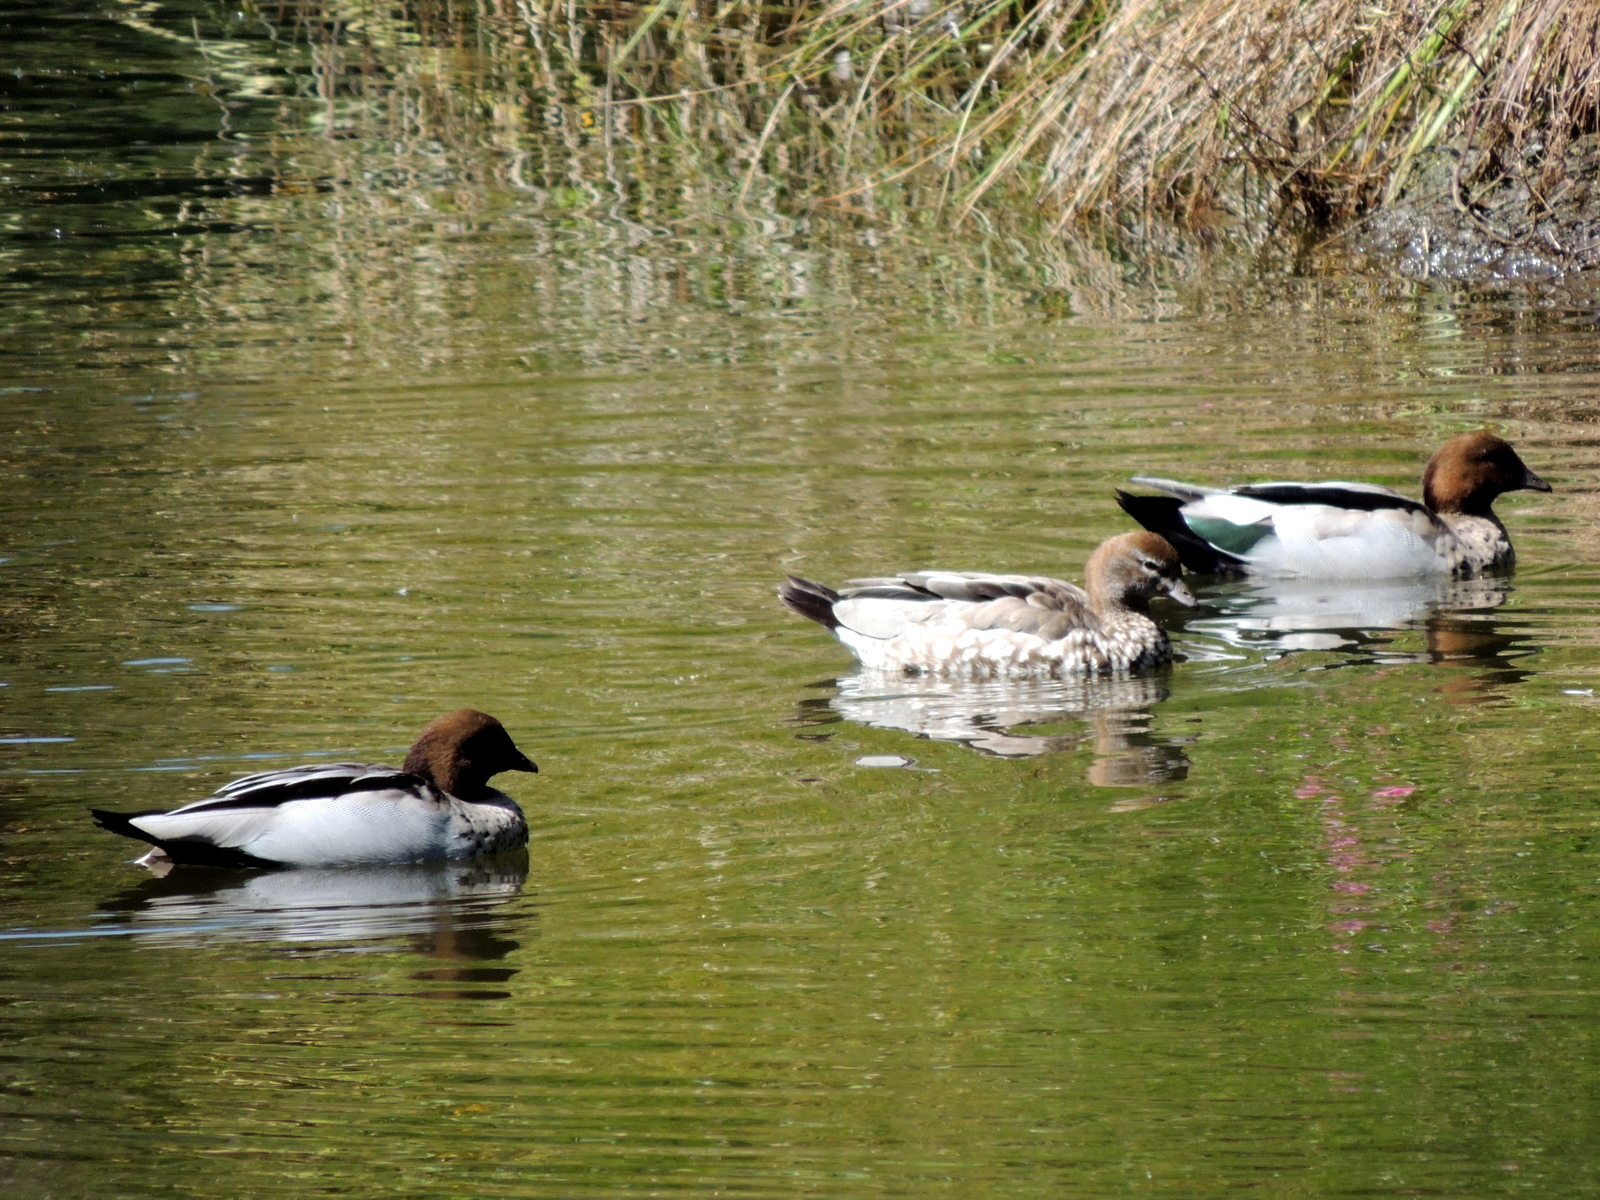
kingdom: Animalia
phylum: Chordata
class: Aves
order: Anseriformes
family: Anatidae
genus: Chenonetta
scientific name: Chenonetta jubata
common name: Maned duck
